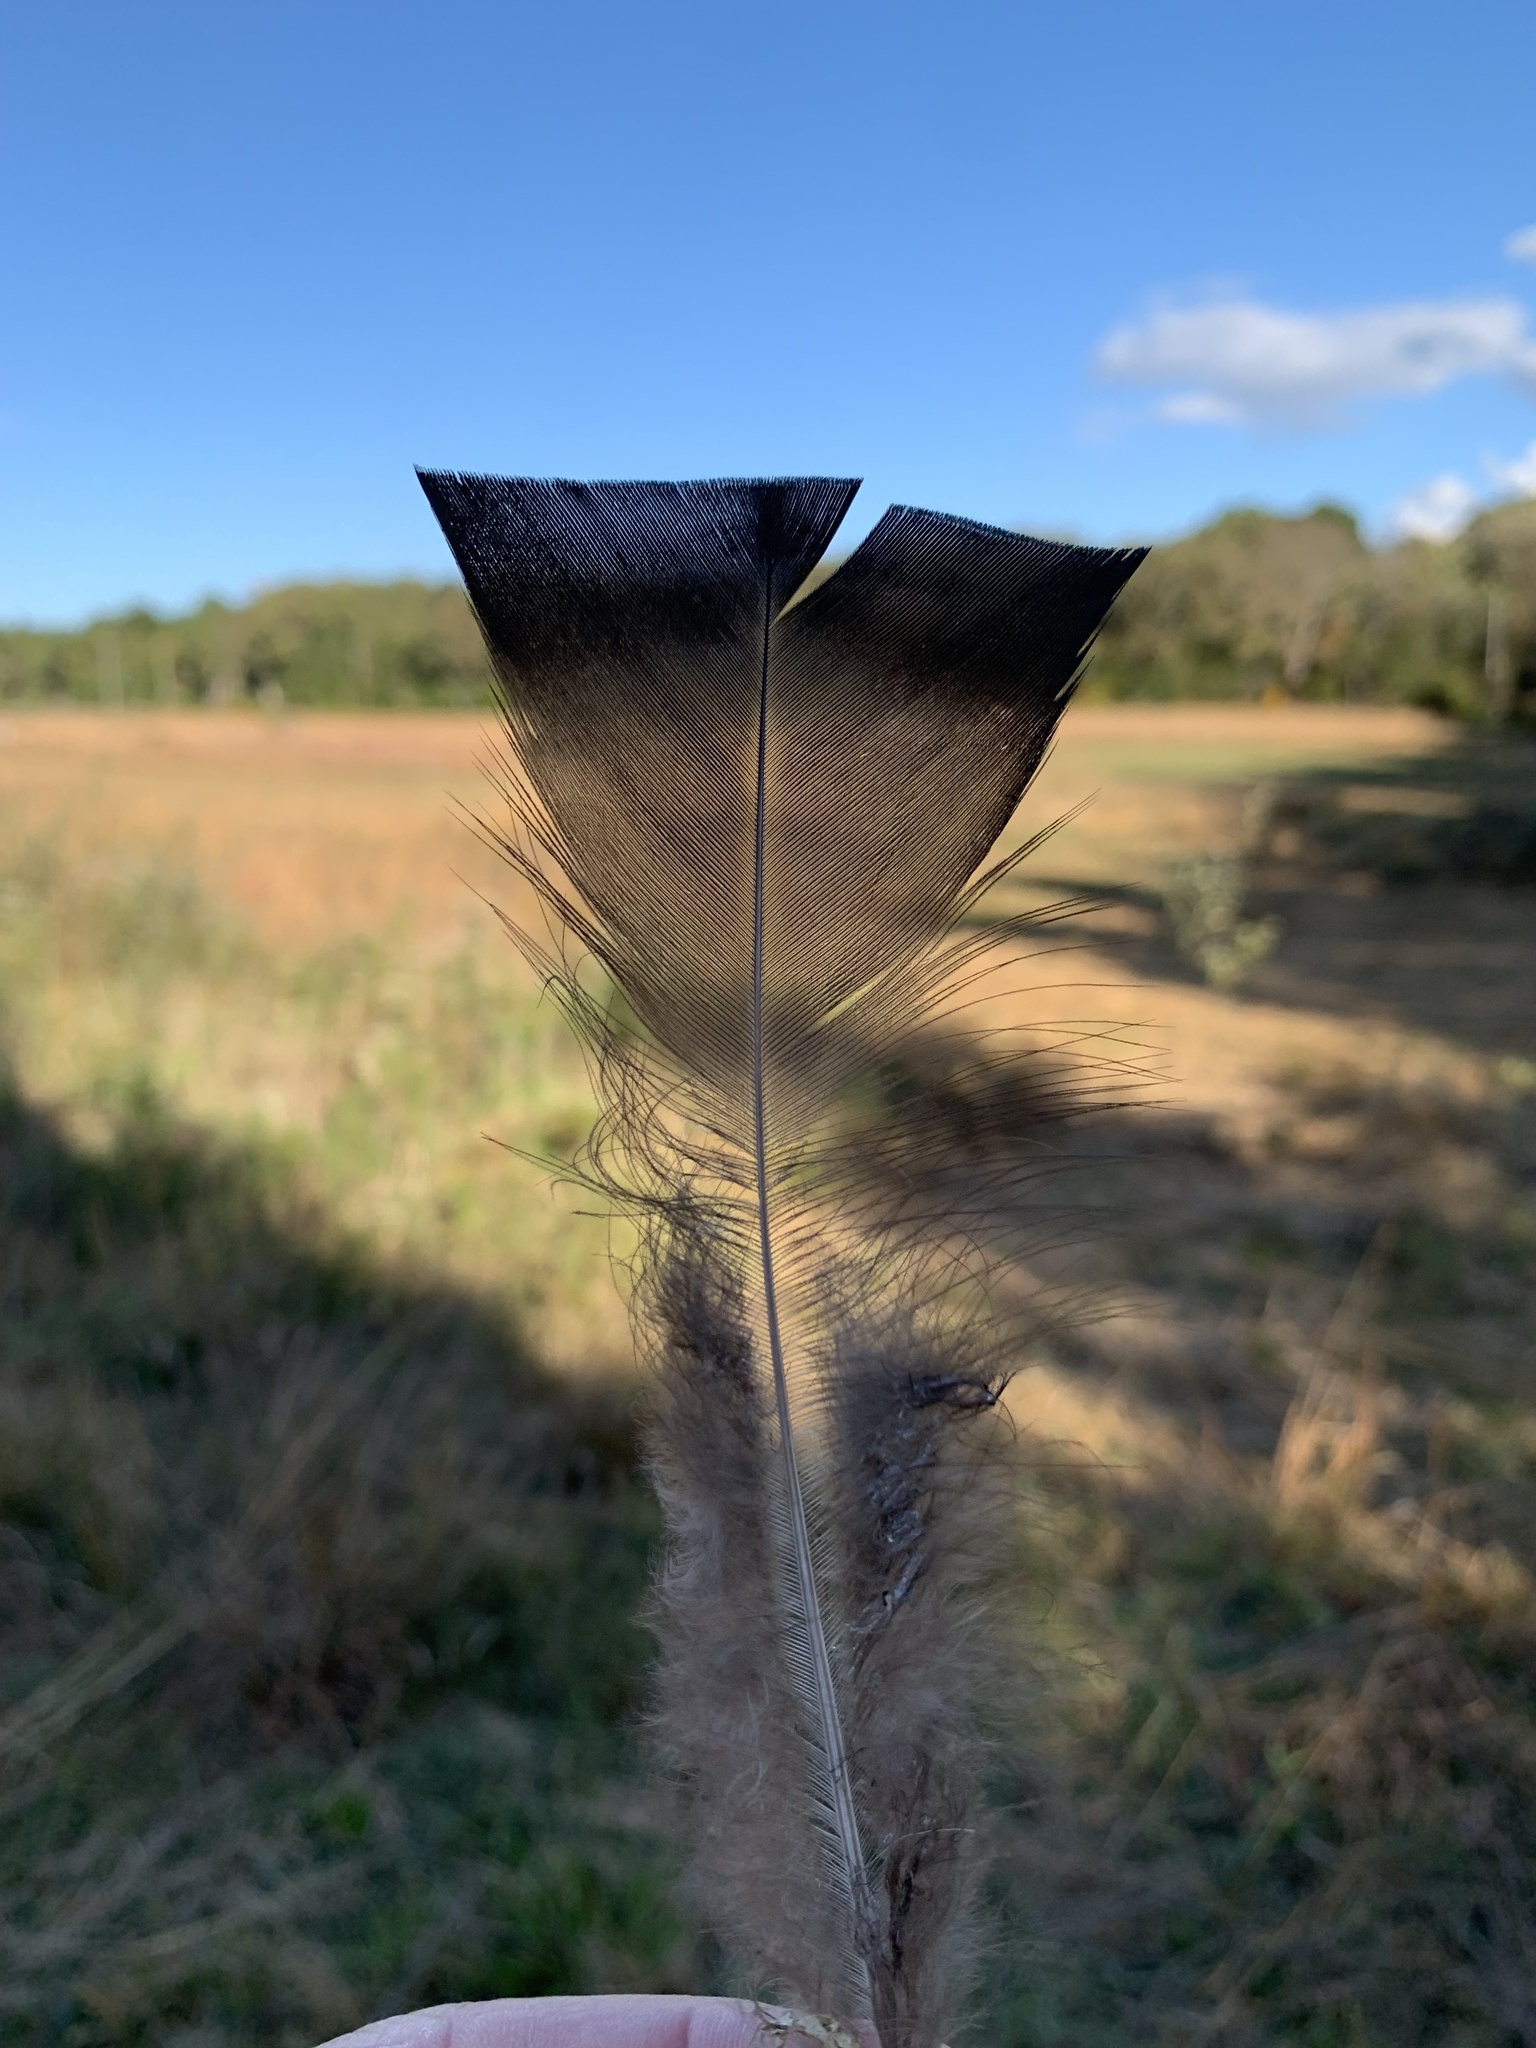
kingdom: Animalia
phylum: Chordata
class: Aves
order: Galliformes
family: Phasianidae
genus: Meleagris
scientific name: Meleagris gallopavo
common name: Wild turkey
